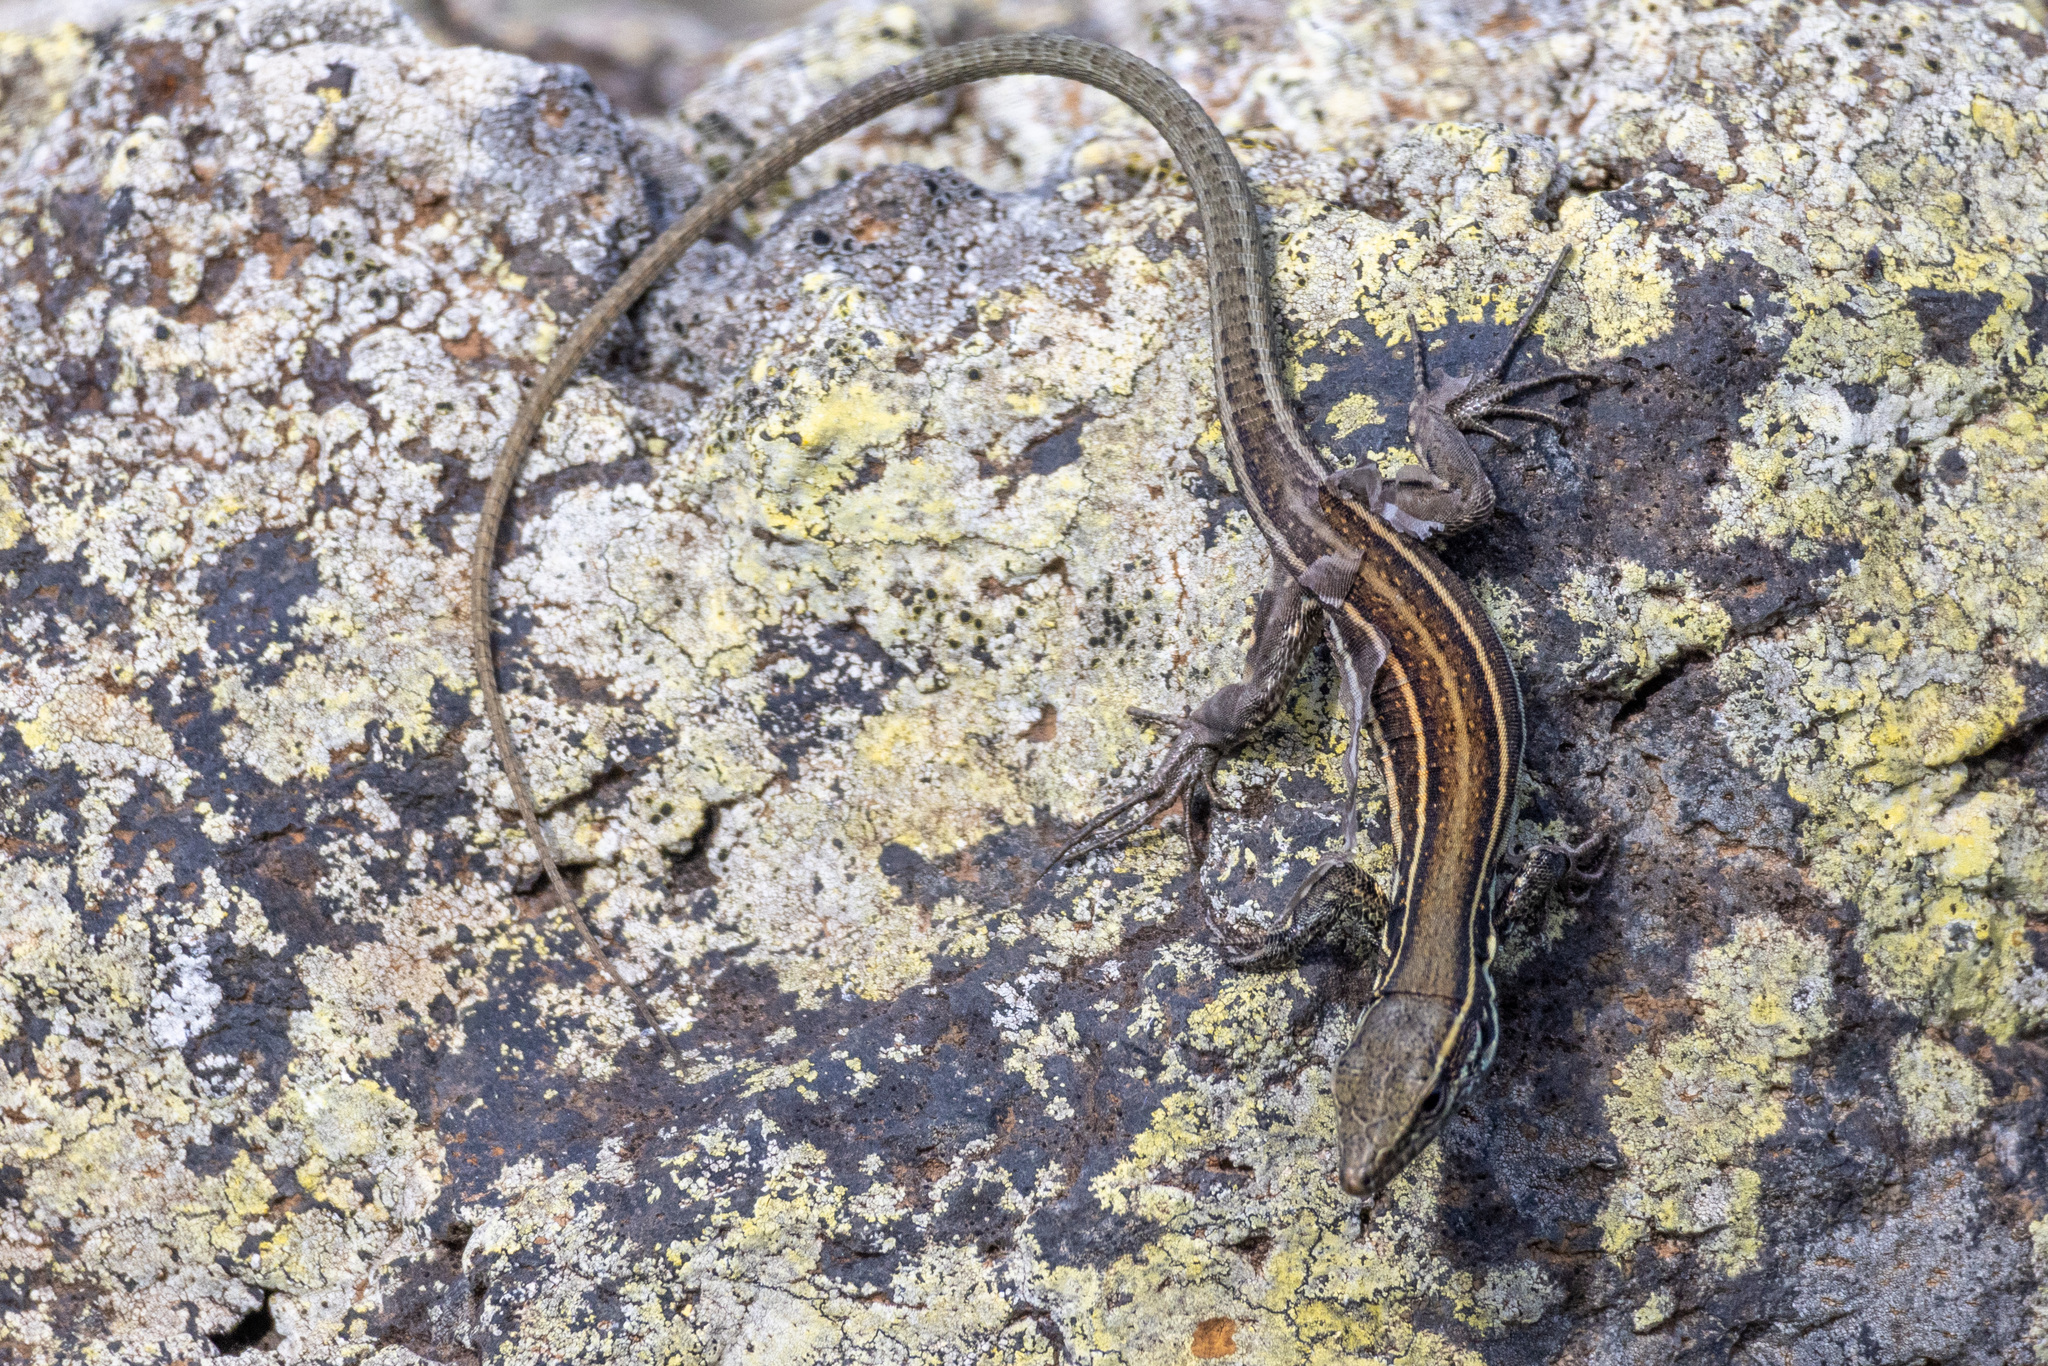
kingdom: Animalia
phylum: Chordata
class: Squamata
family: Lacertidae
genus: Gallotia
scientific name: Gallotia caesaris
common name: Boettger's lizard
